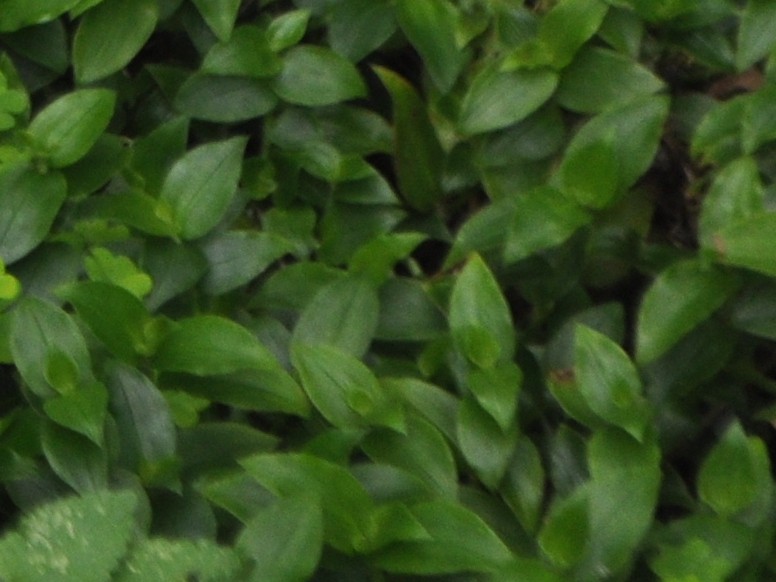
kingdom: Plantae
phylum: Tracheophyta
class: Liliopsida
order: Commelinales
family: Commelinaceae
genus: Tradescantia
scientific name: Tradescantia fluminensis
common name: Wandering-jew
